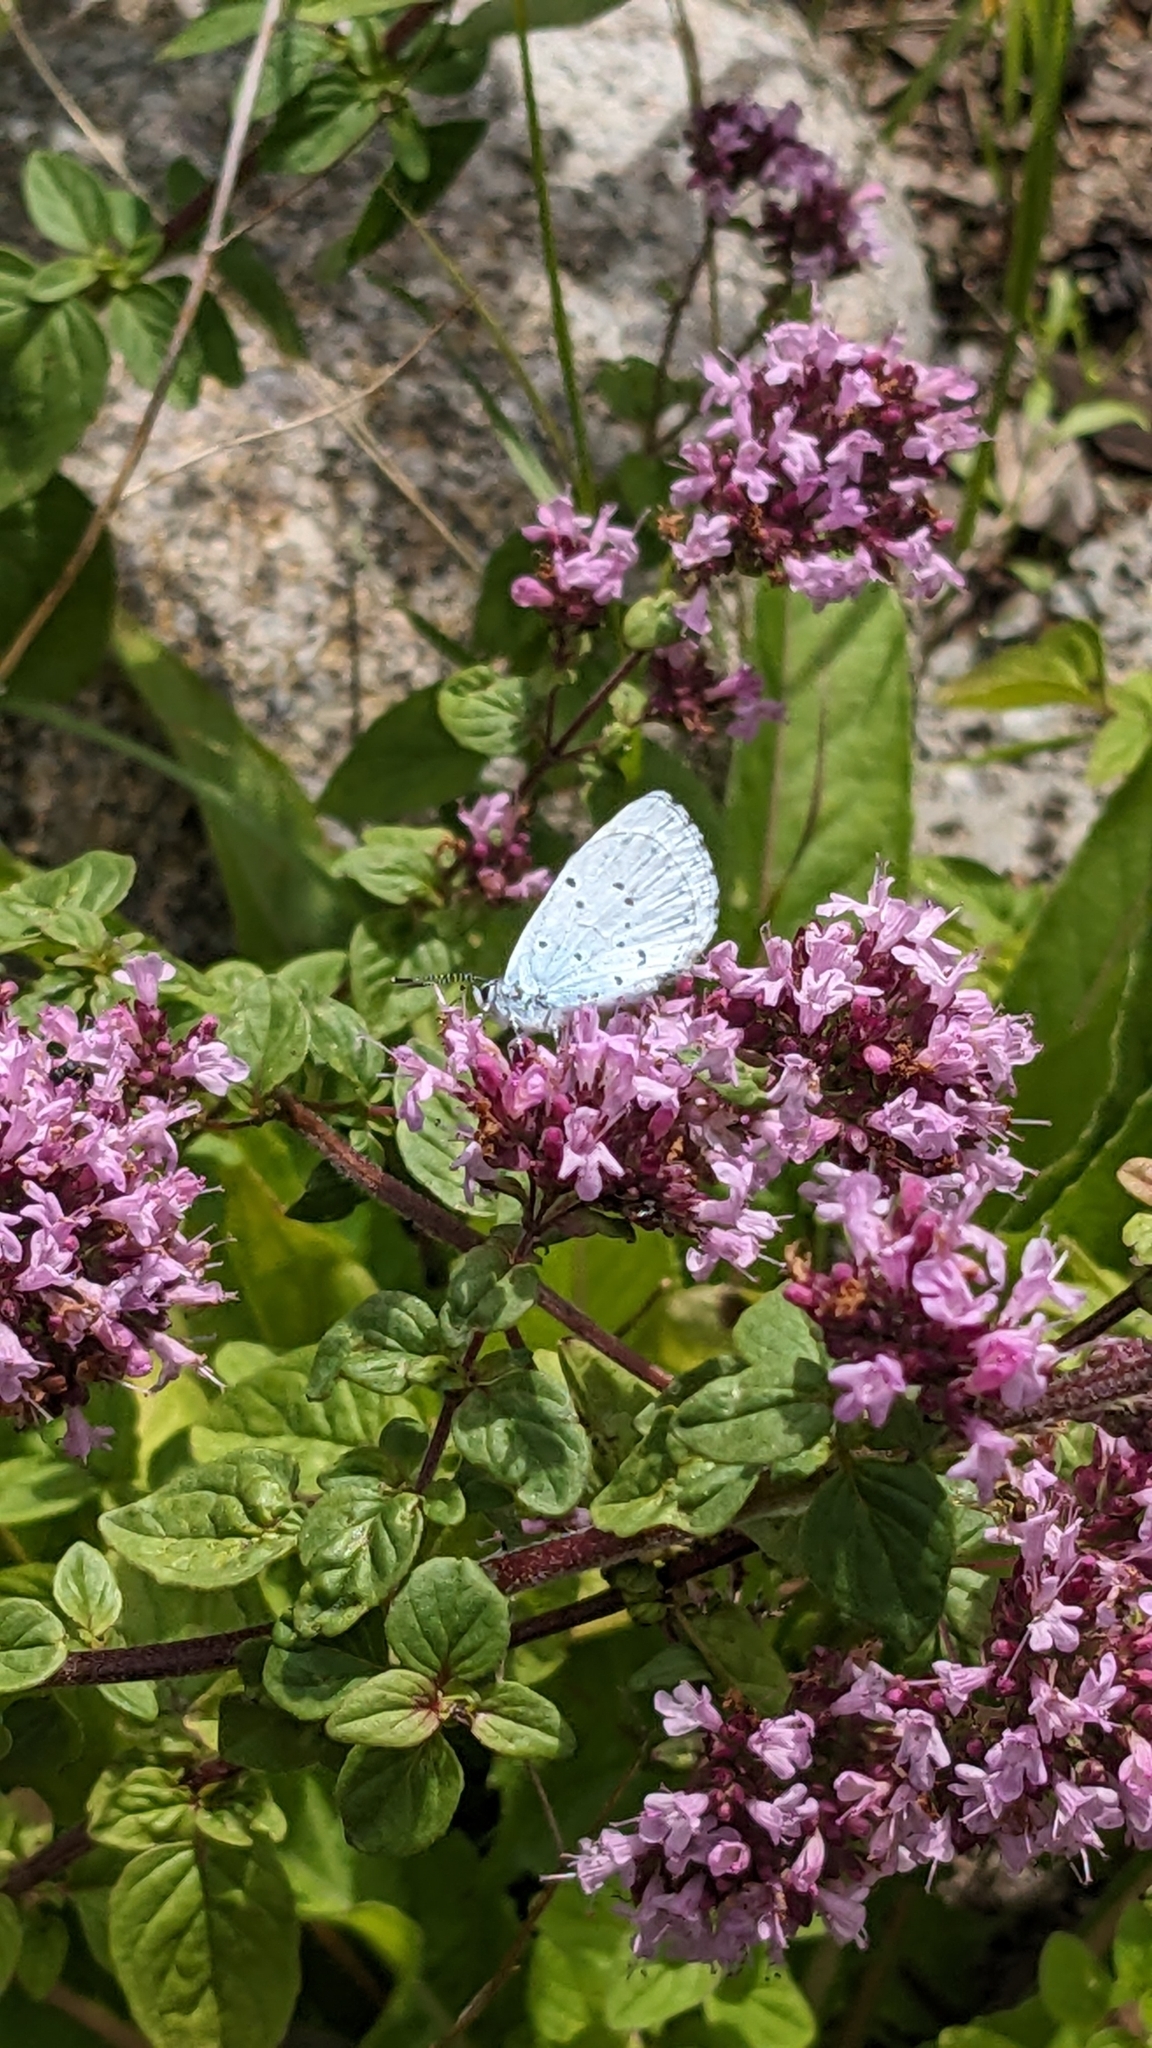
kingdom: Animalia
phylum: Arthropoda
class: Insecta
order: Lepidoptera
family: Lycaenidae
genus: Celastrina
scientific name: Celastrina argiolus
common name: Holly blue
